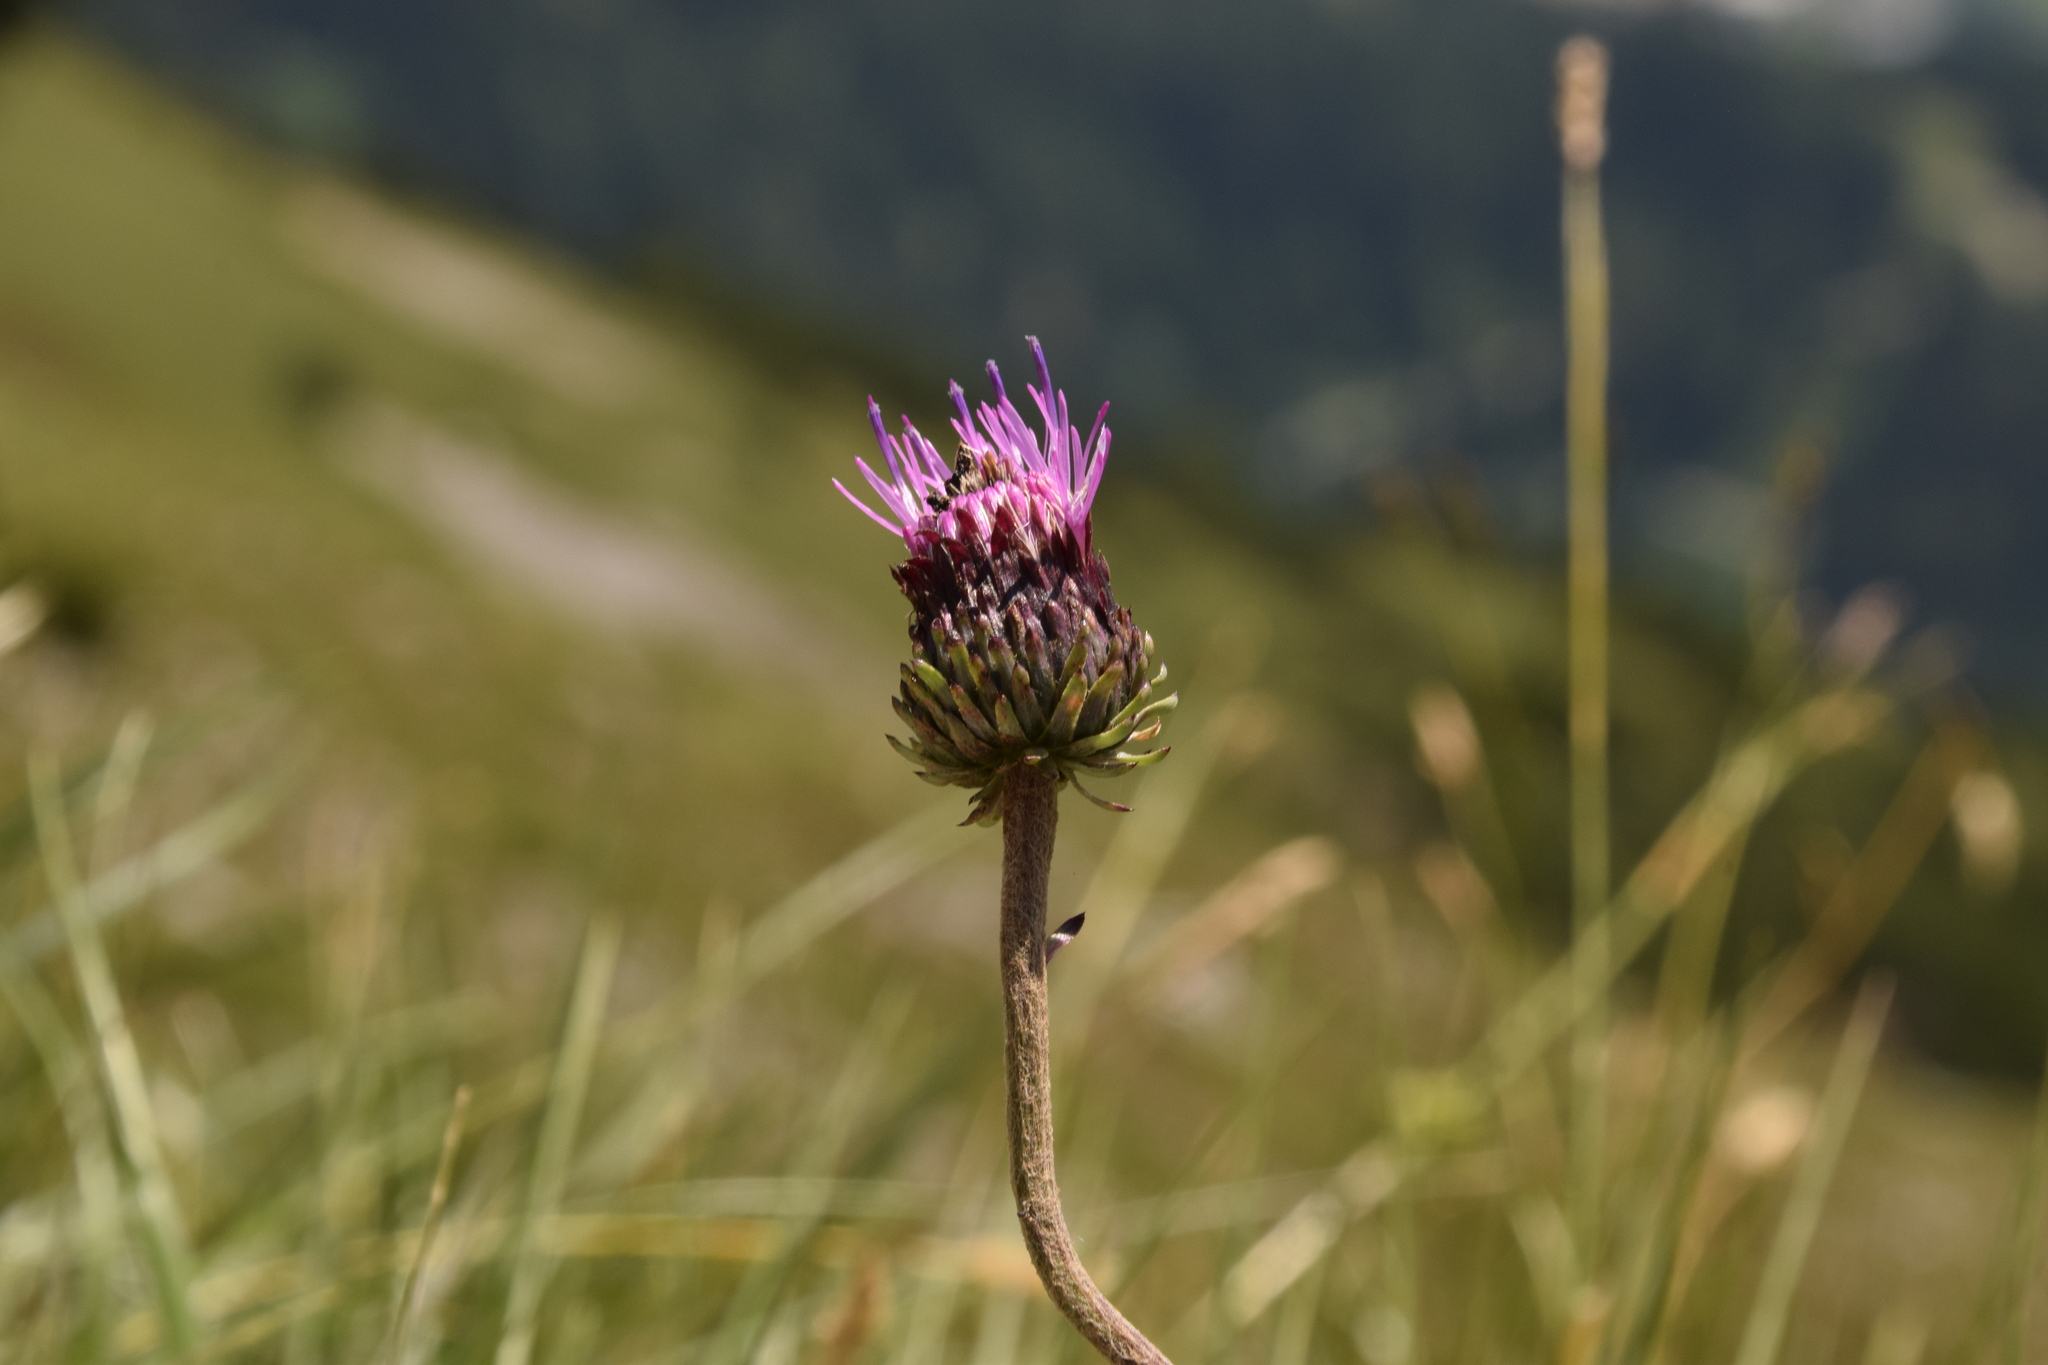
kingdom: Plantae
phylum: Tracheophyta
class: Magnoliopsida
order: Asterales
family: Asteraceae
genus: Carduus
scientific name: Carduus defloratus
